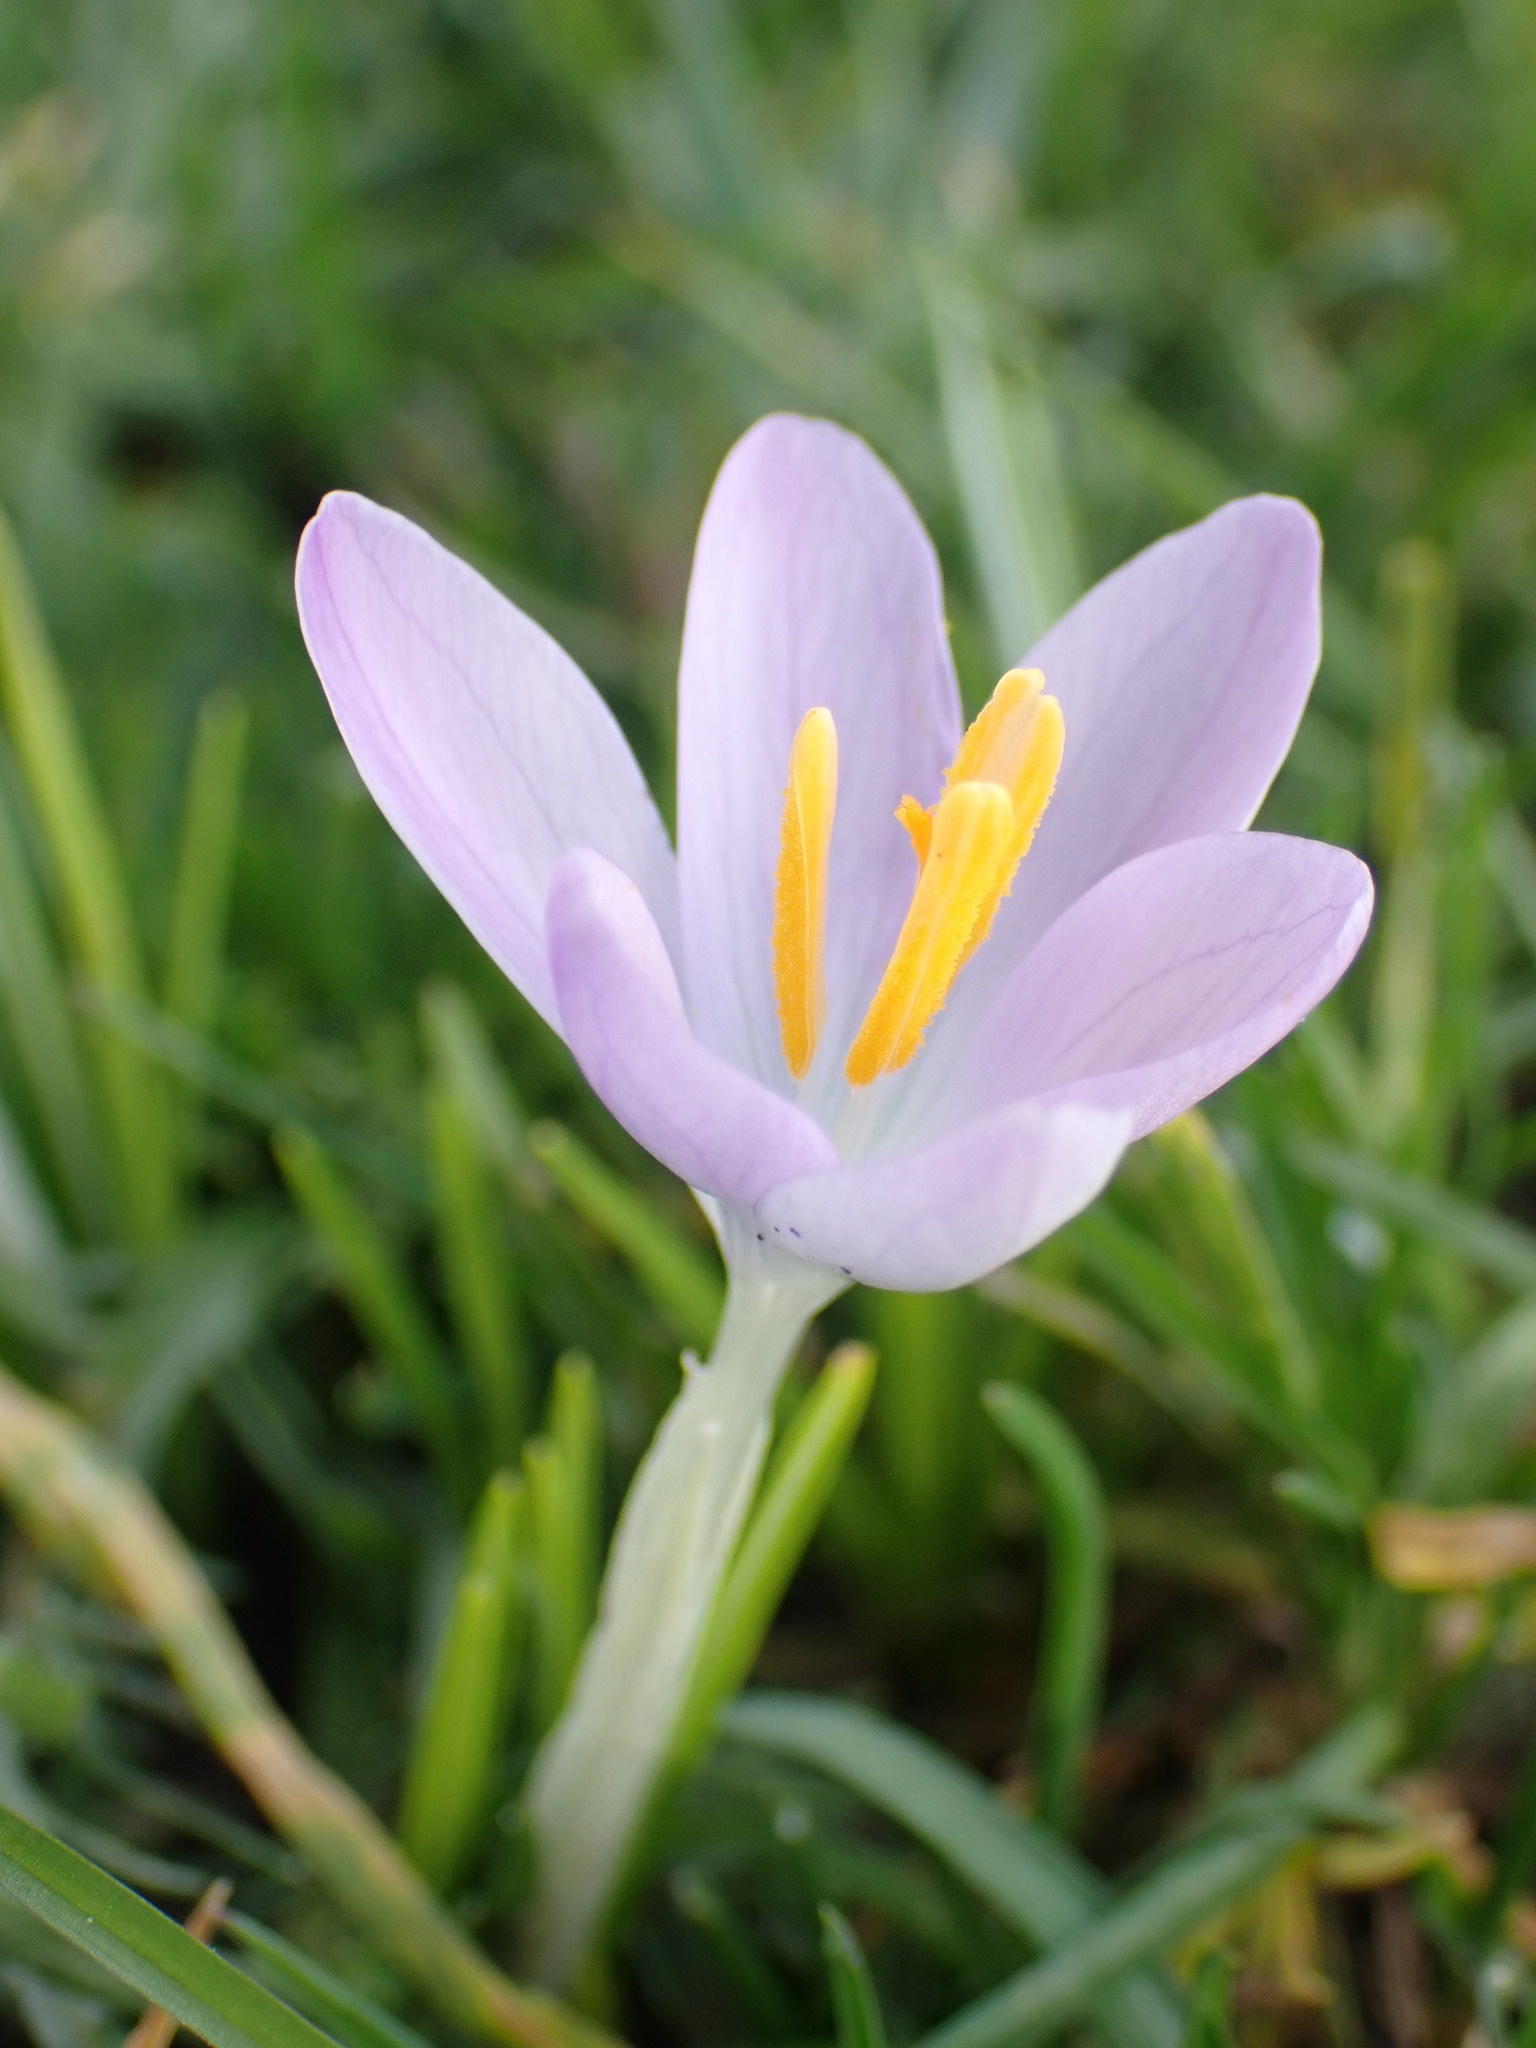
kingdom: Plantae
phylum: Tracheophyta
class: Liliopsida
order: Asparagales
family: Iridaceae
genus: Crocus
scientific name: Crocus tommasinianus
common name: Early crocus
